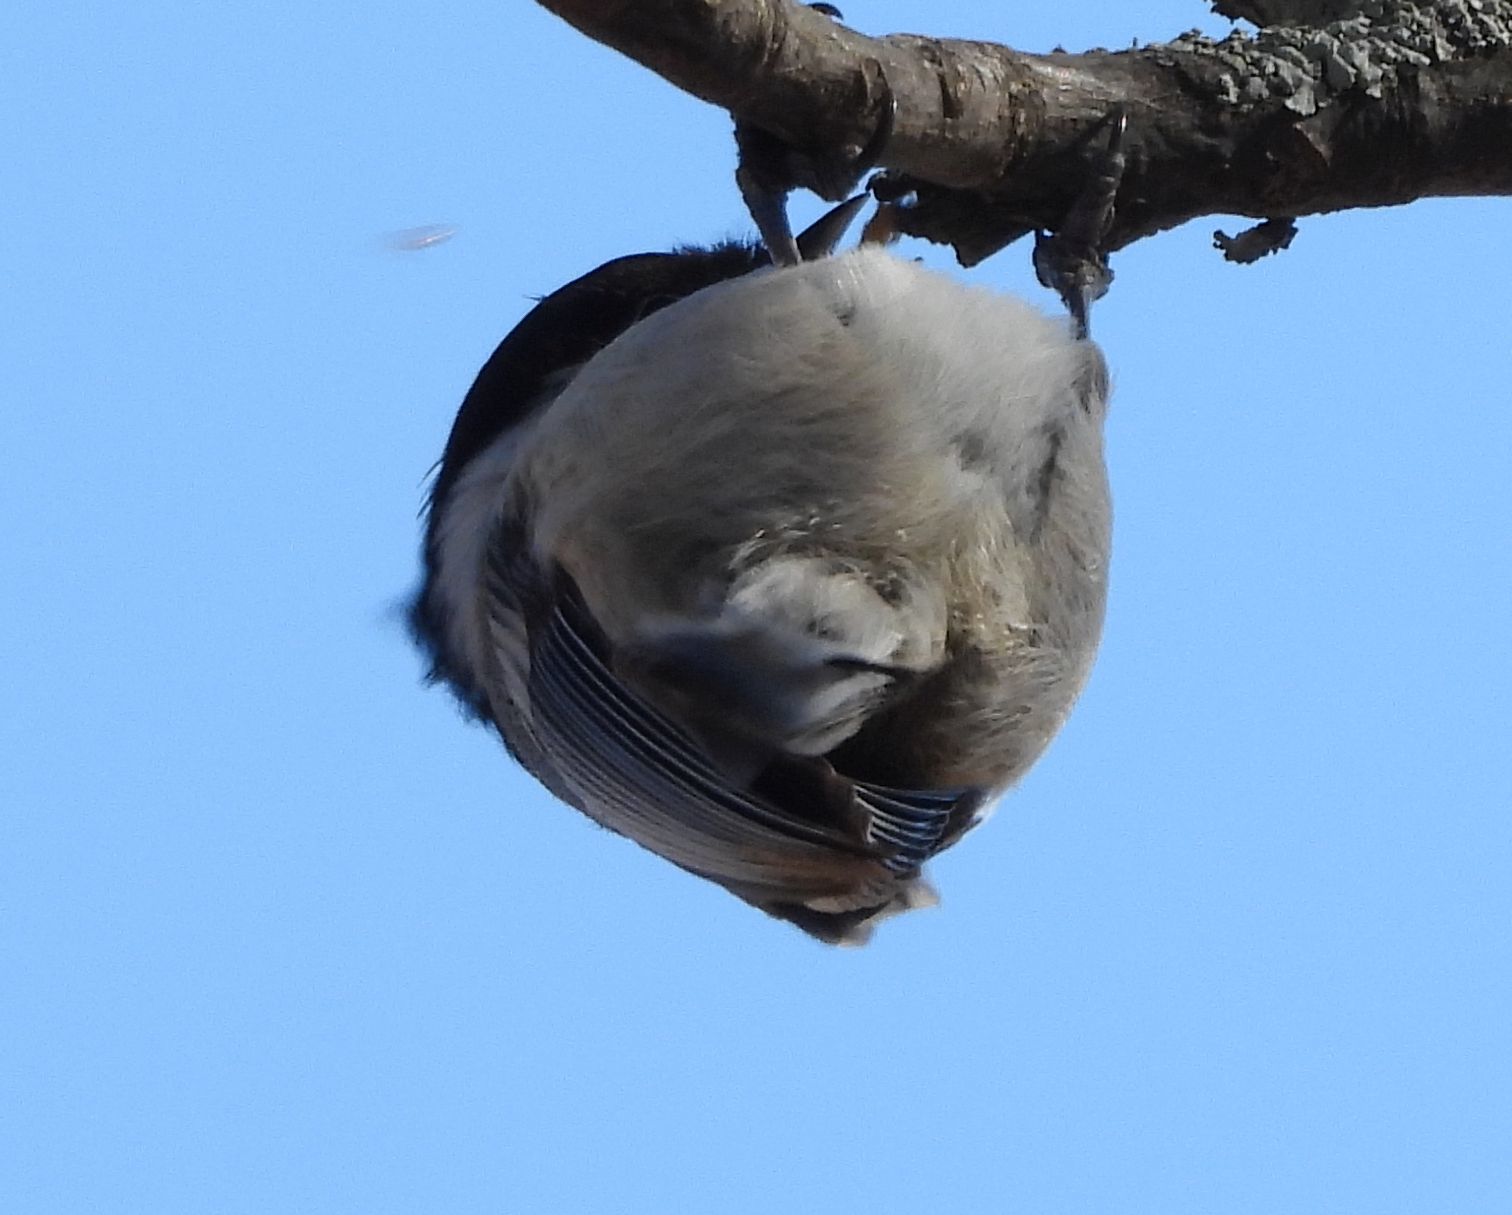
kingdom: Animalia
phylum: Chordata
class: Aves
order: Passeriformes
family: Paridae
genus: Poecile
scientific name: Poecile atricapillus
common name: Black-capped chickadee
